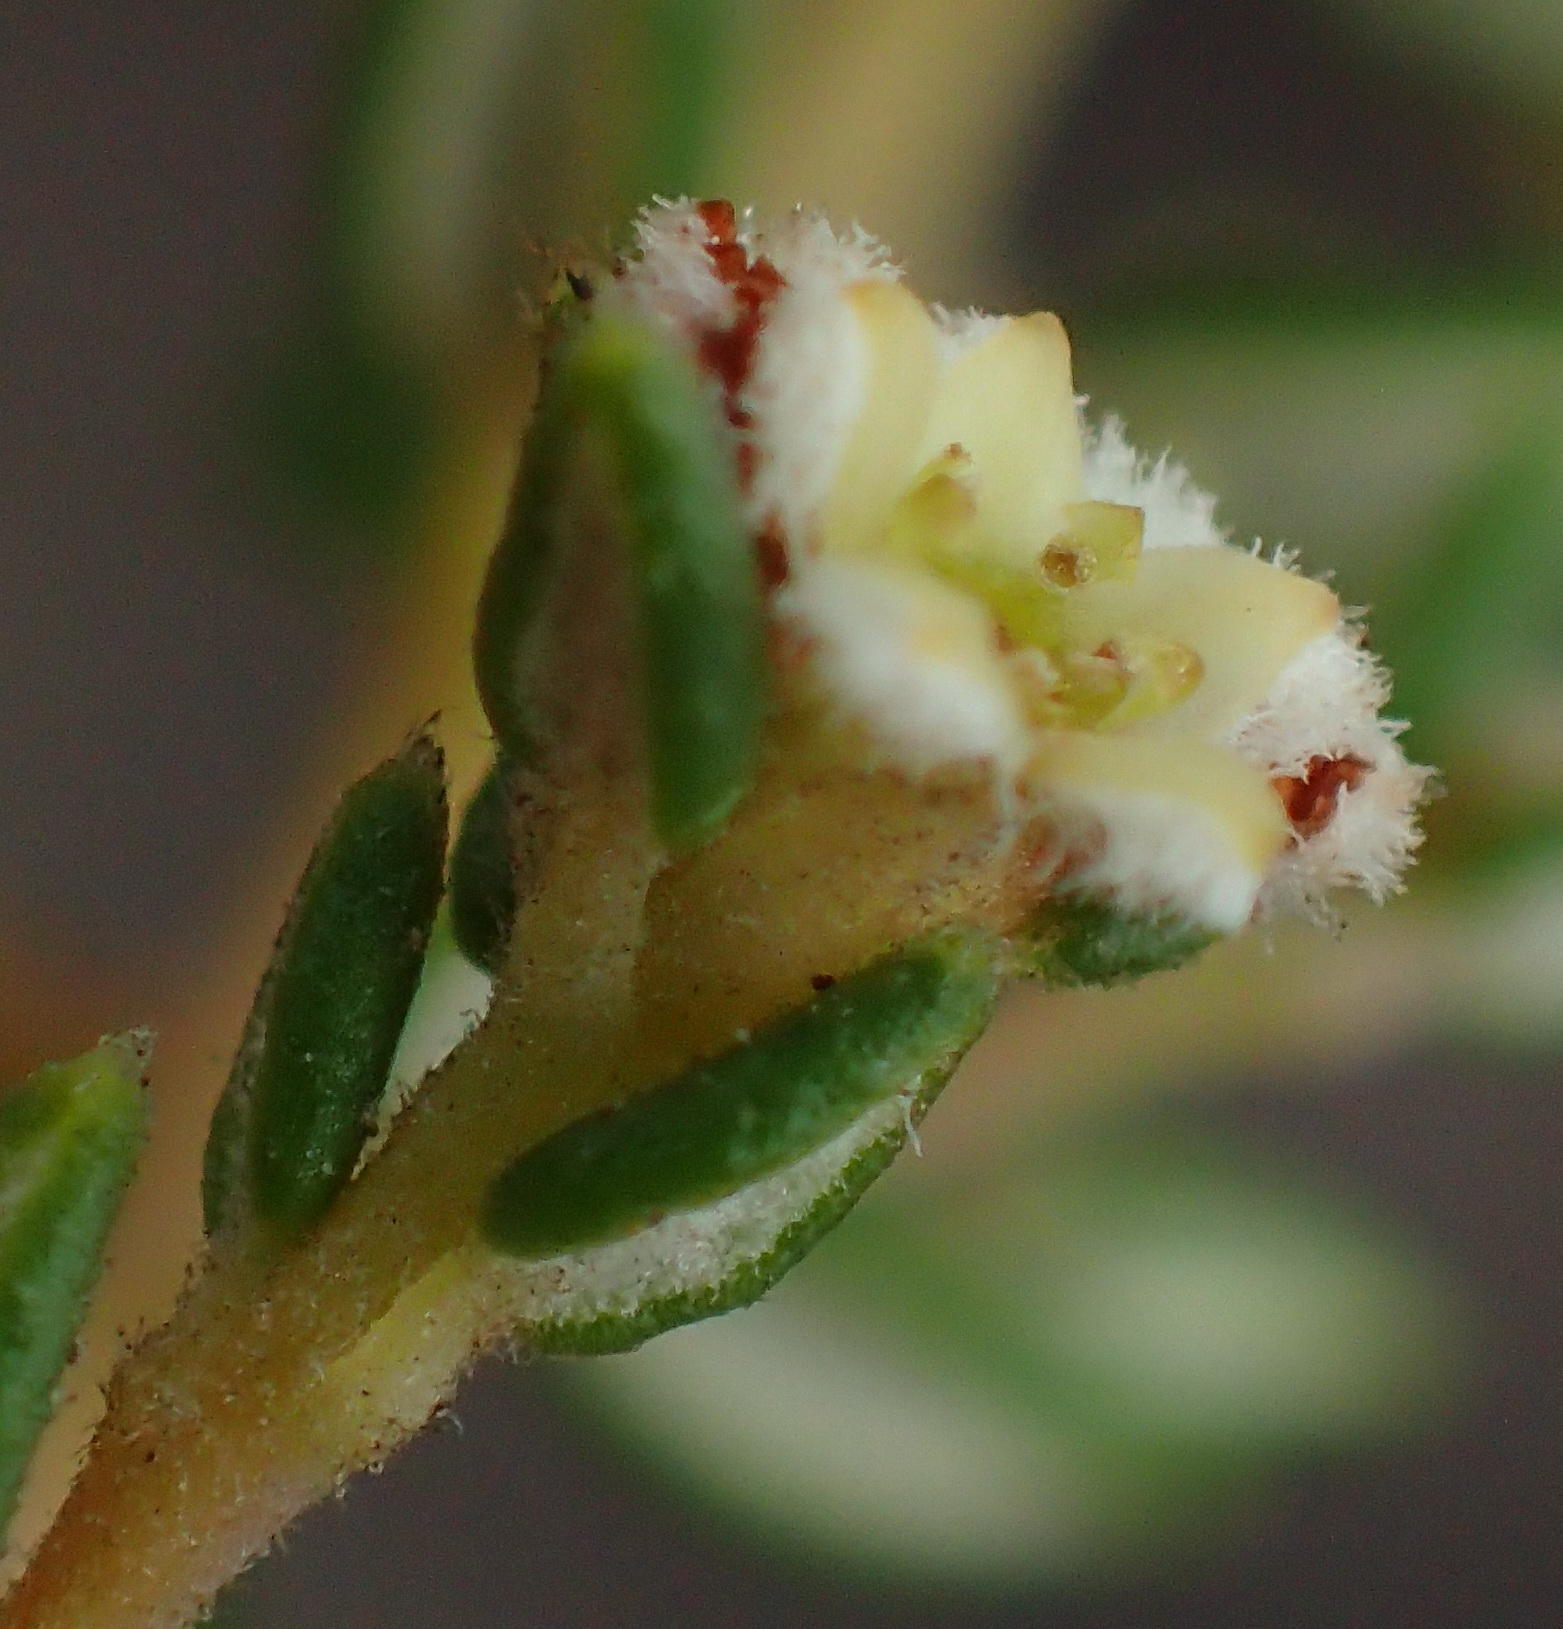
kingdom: Plantae
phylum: Tracheophyta
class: Magnoliopsida
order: Rosales
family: Rhamnaceae
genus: Phylica
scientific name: Phylica parviflora
